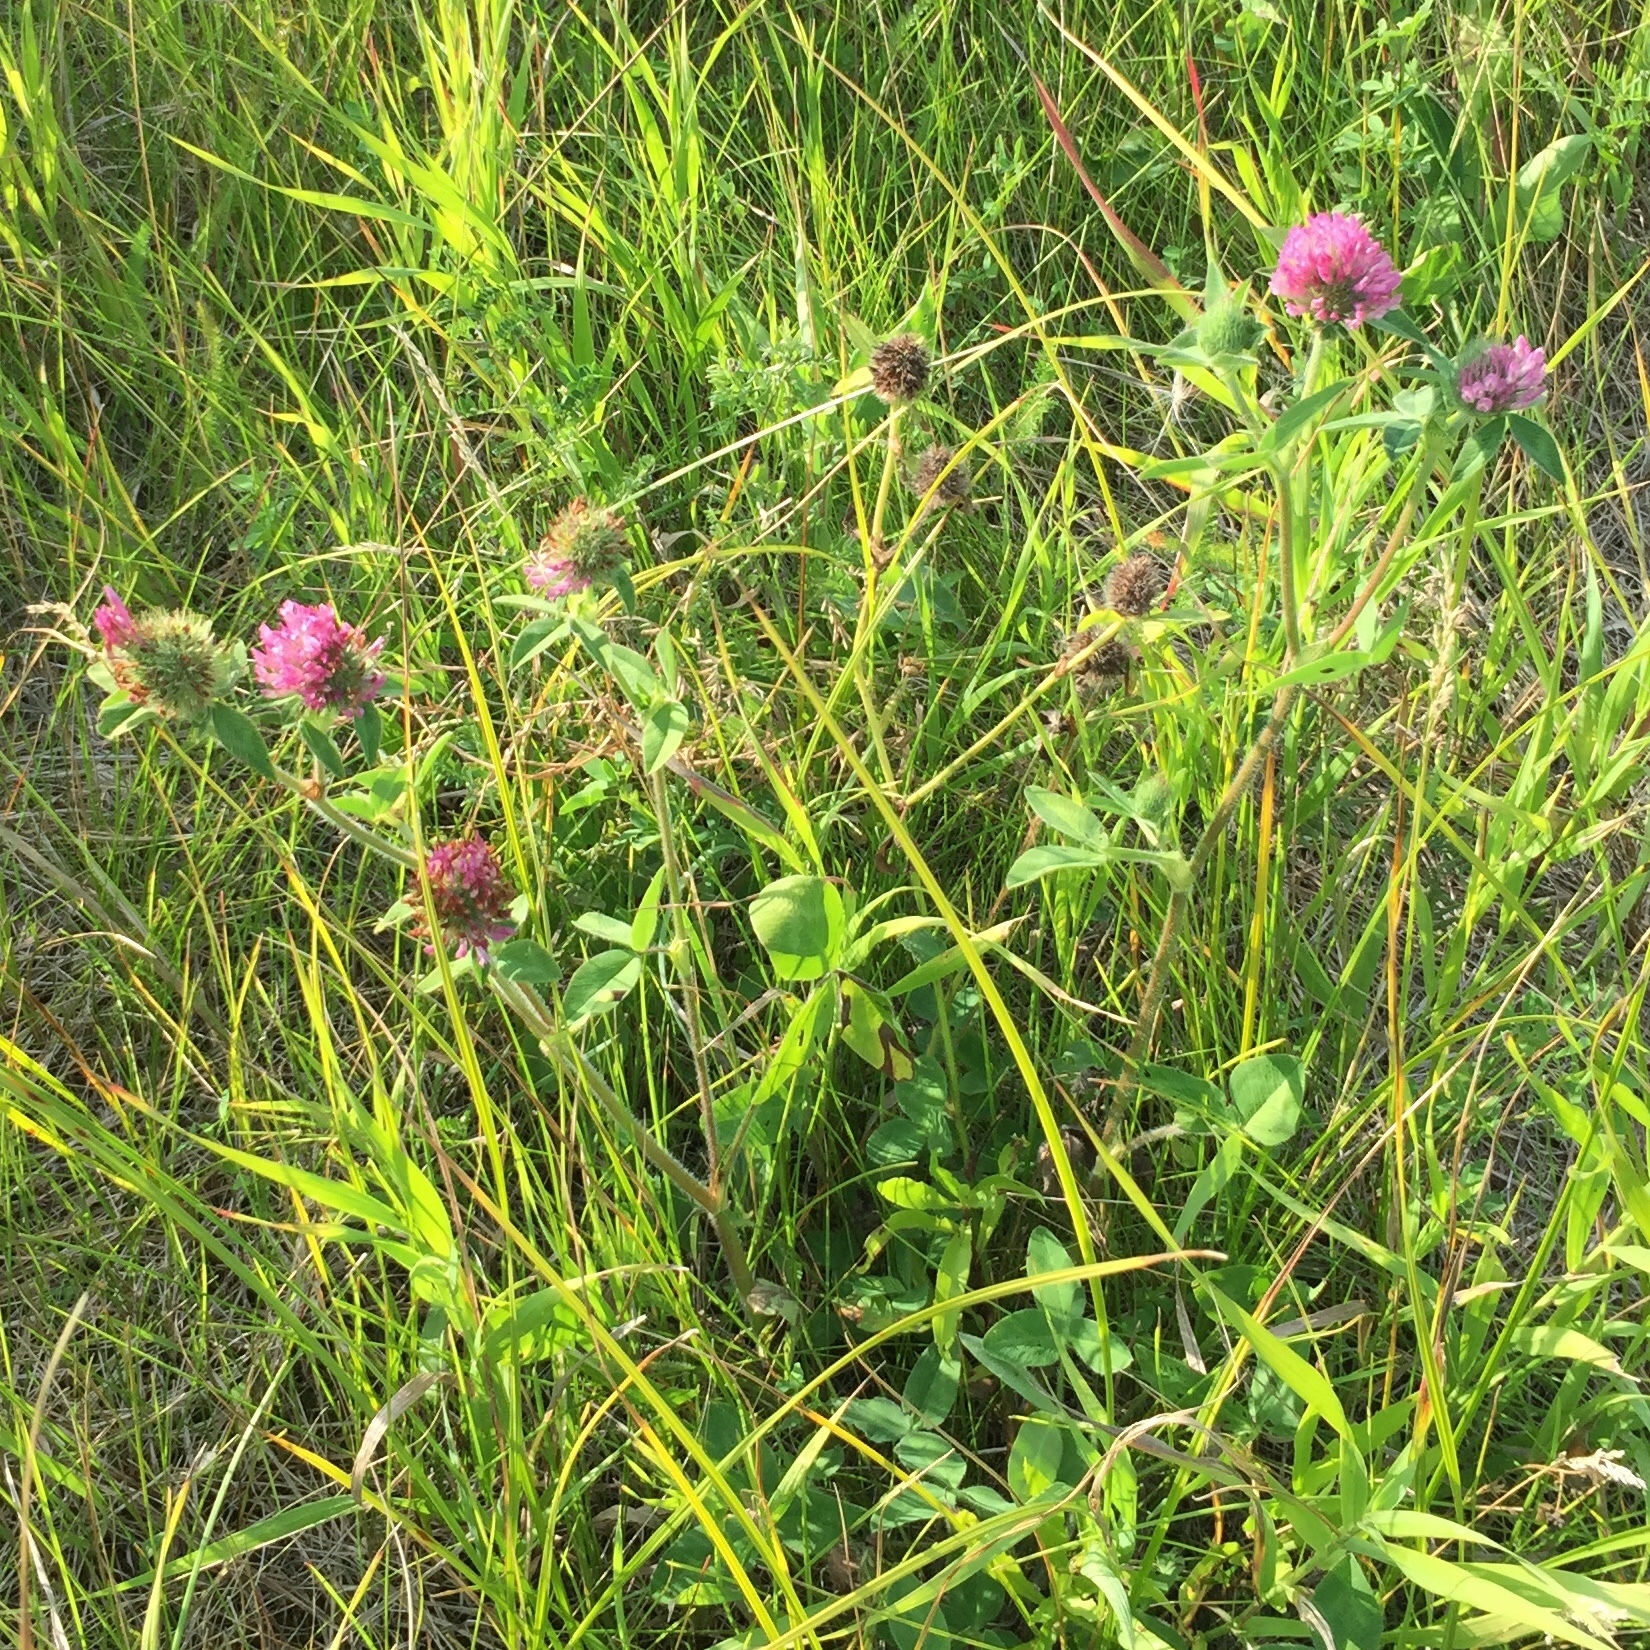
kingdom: Plantae
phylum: Tracheophyta
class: Magnoliopsida
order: Fabales
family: Fabaceae
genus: Trifolium
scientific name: Trifolium pratense
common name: Red clover
